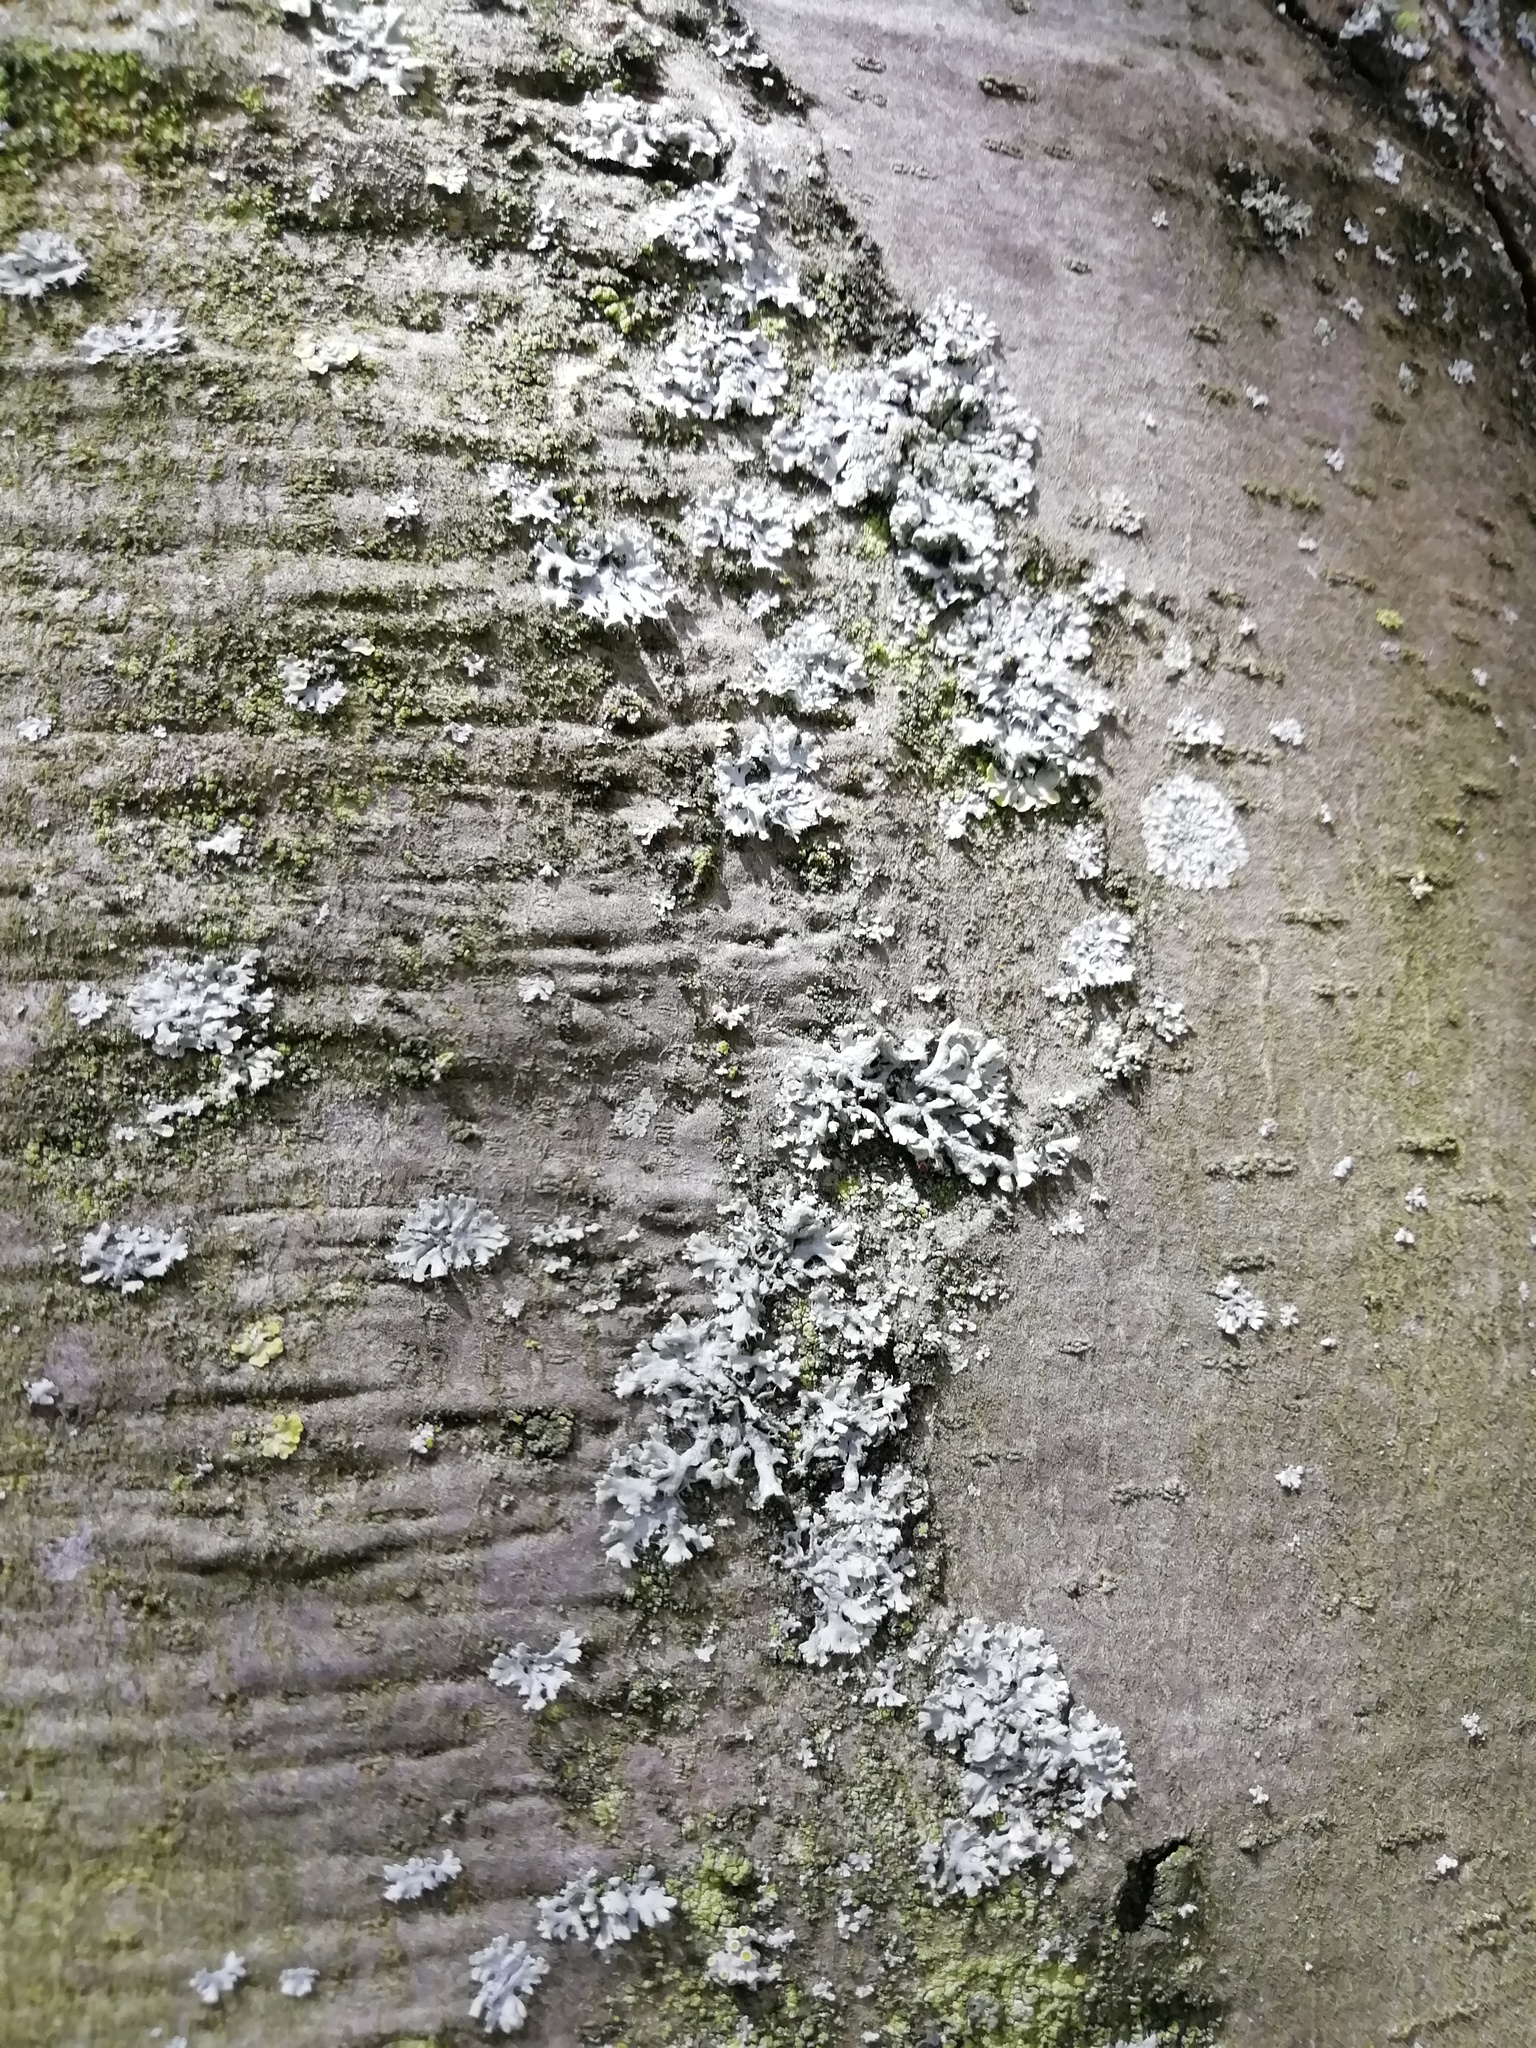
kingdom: Fungi
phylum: Ascomycota
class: Lecanoromycetes
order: Caliciales
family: Physciaceae
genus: Physcia
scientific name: Physcia adscendens
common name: Hooded rosette lichen
